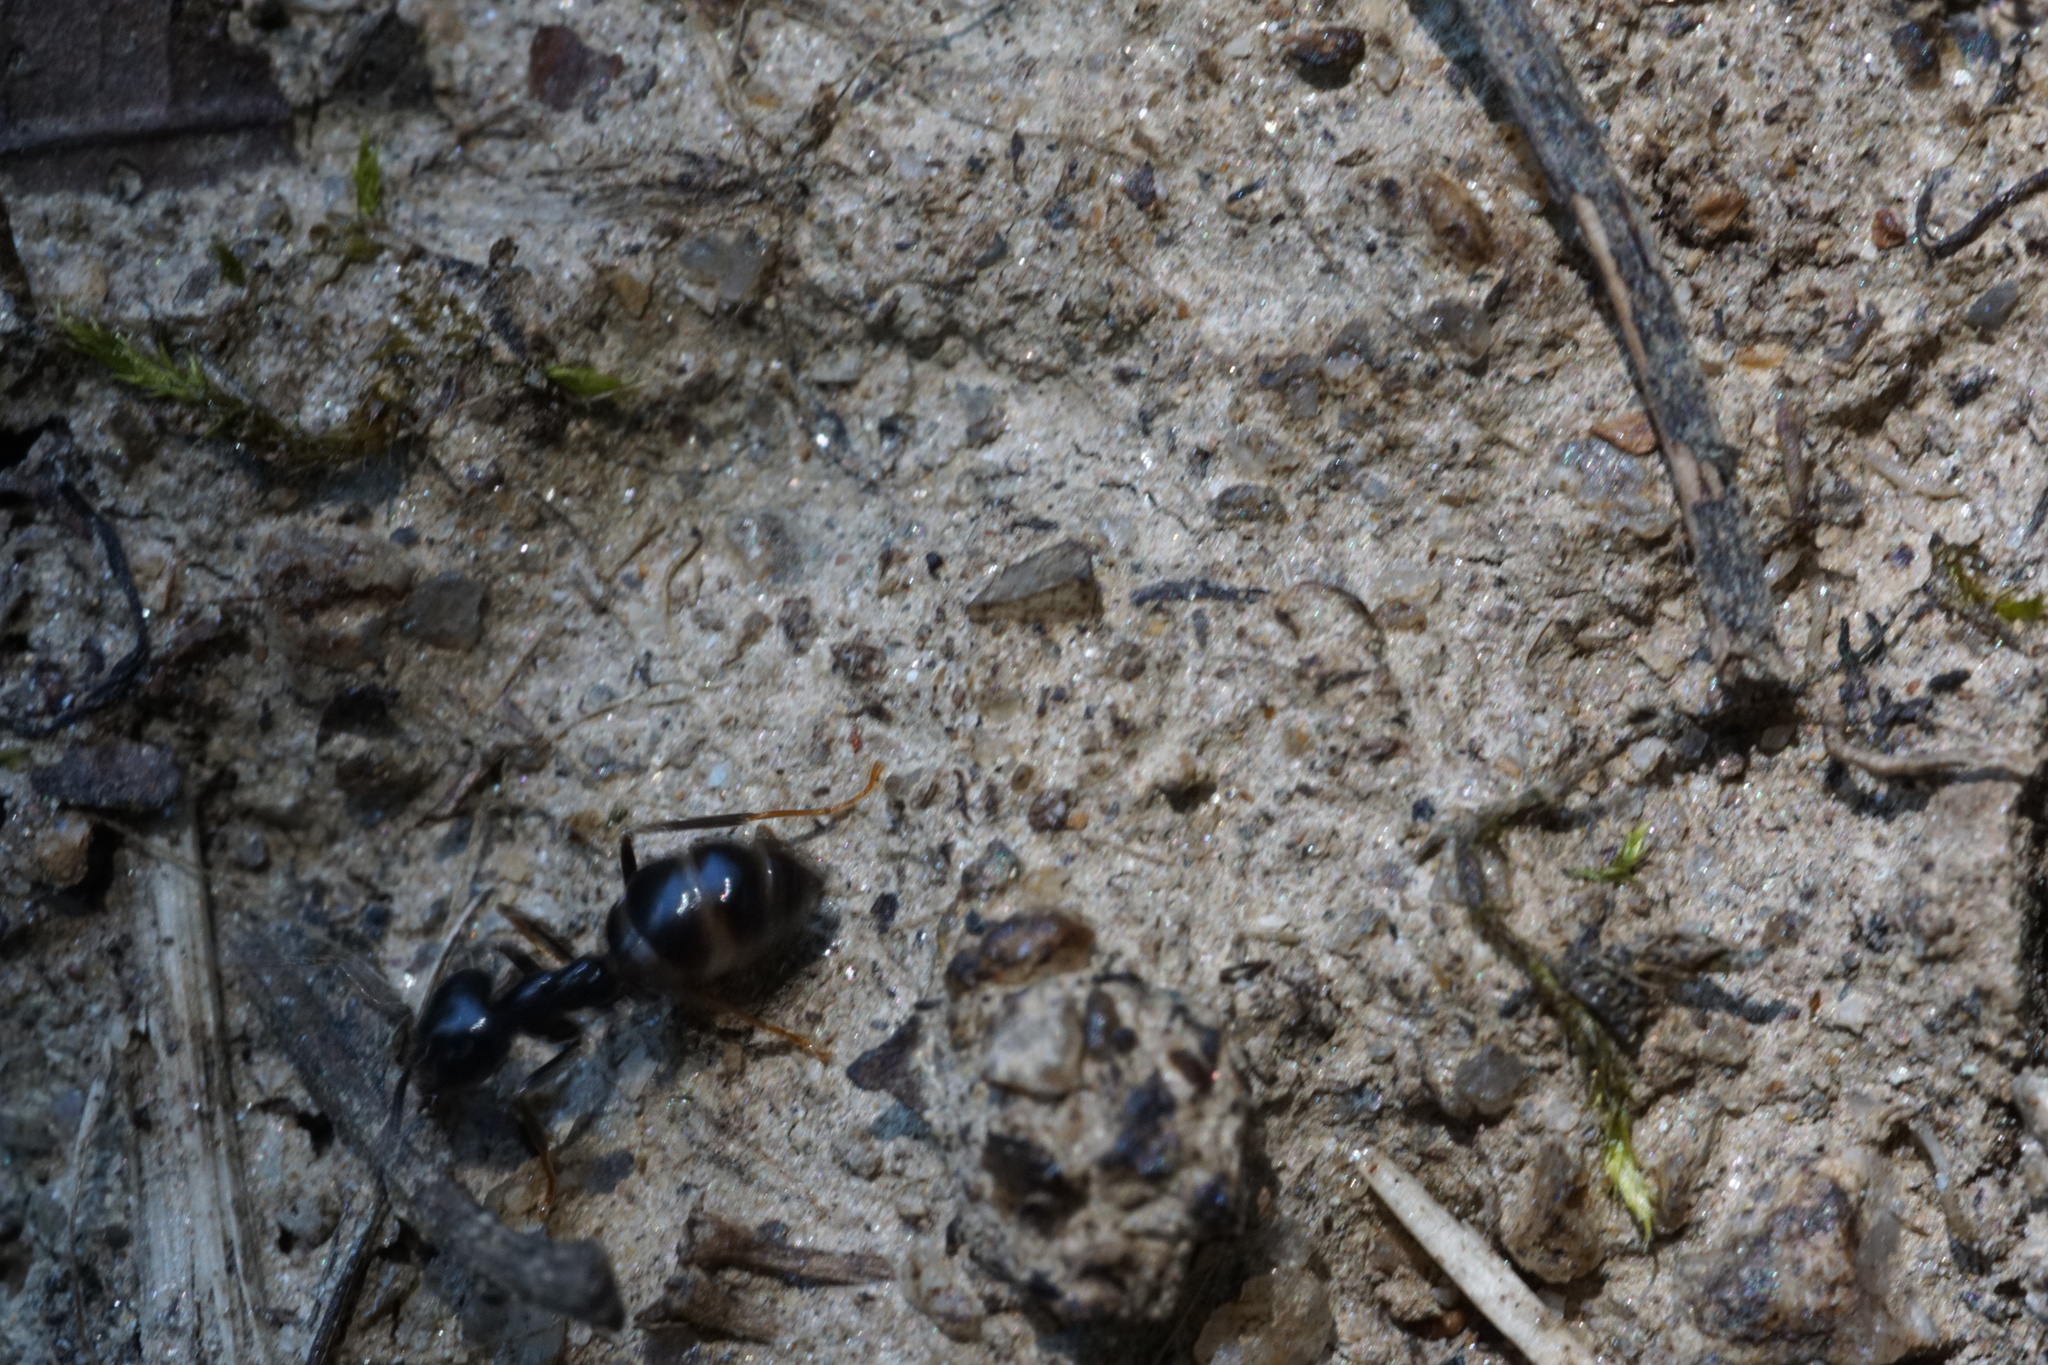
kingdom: Animalia
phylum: Arthropoda
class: Insecta
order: Hymenoptera
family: Formicidae
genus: Lasius
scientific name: Lasius fuliginosus
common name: Jet ant
